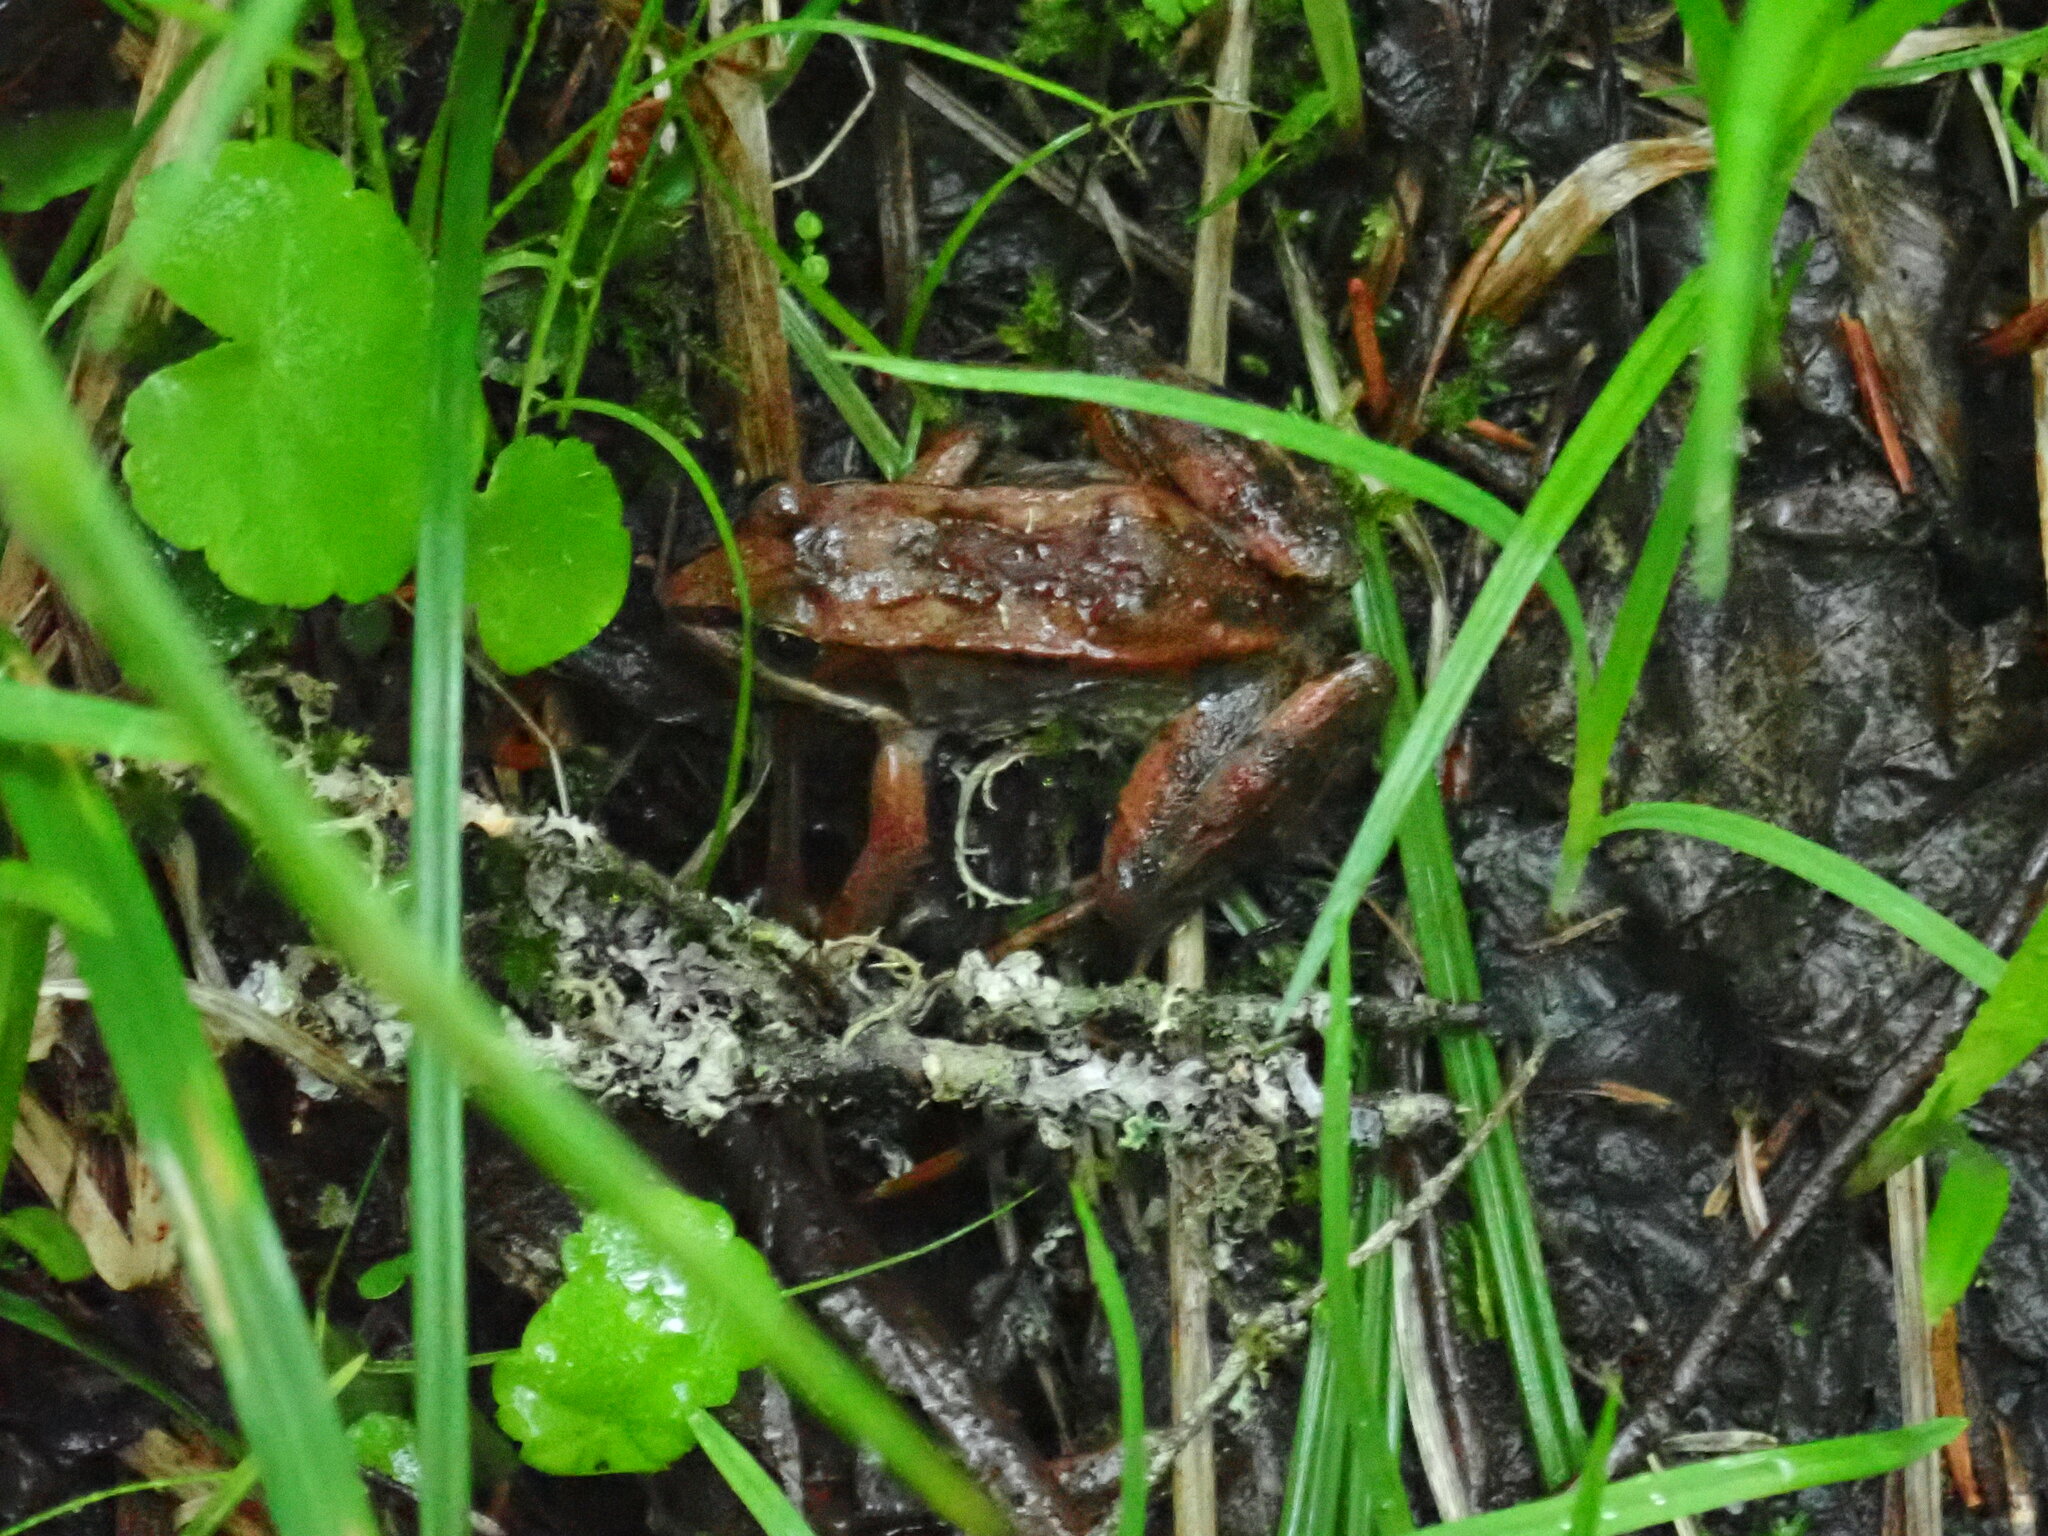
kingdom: Animalia
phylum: Chordata
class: Amphibia
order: Anura
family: Ranidae
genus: Lithobates
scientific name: Lithobates sylvaticus
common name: Wood frog
